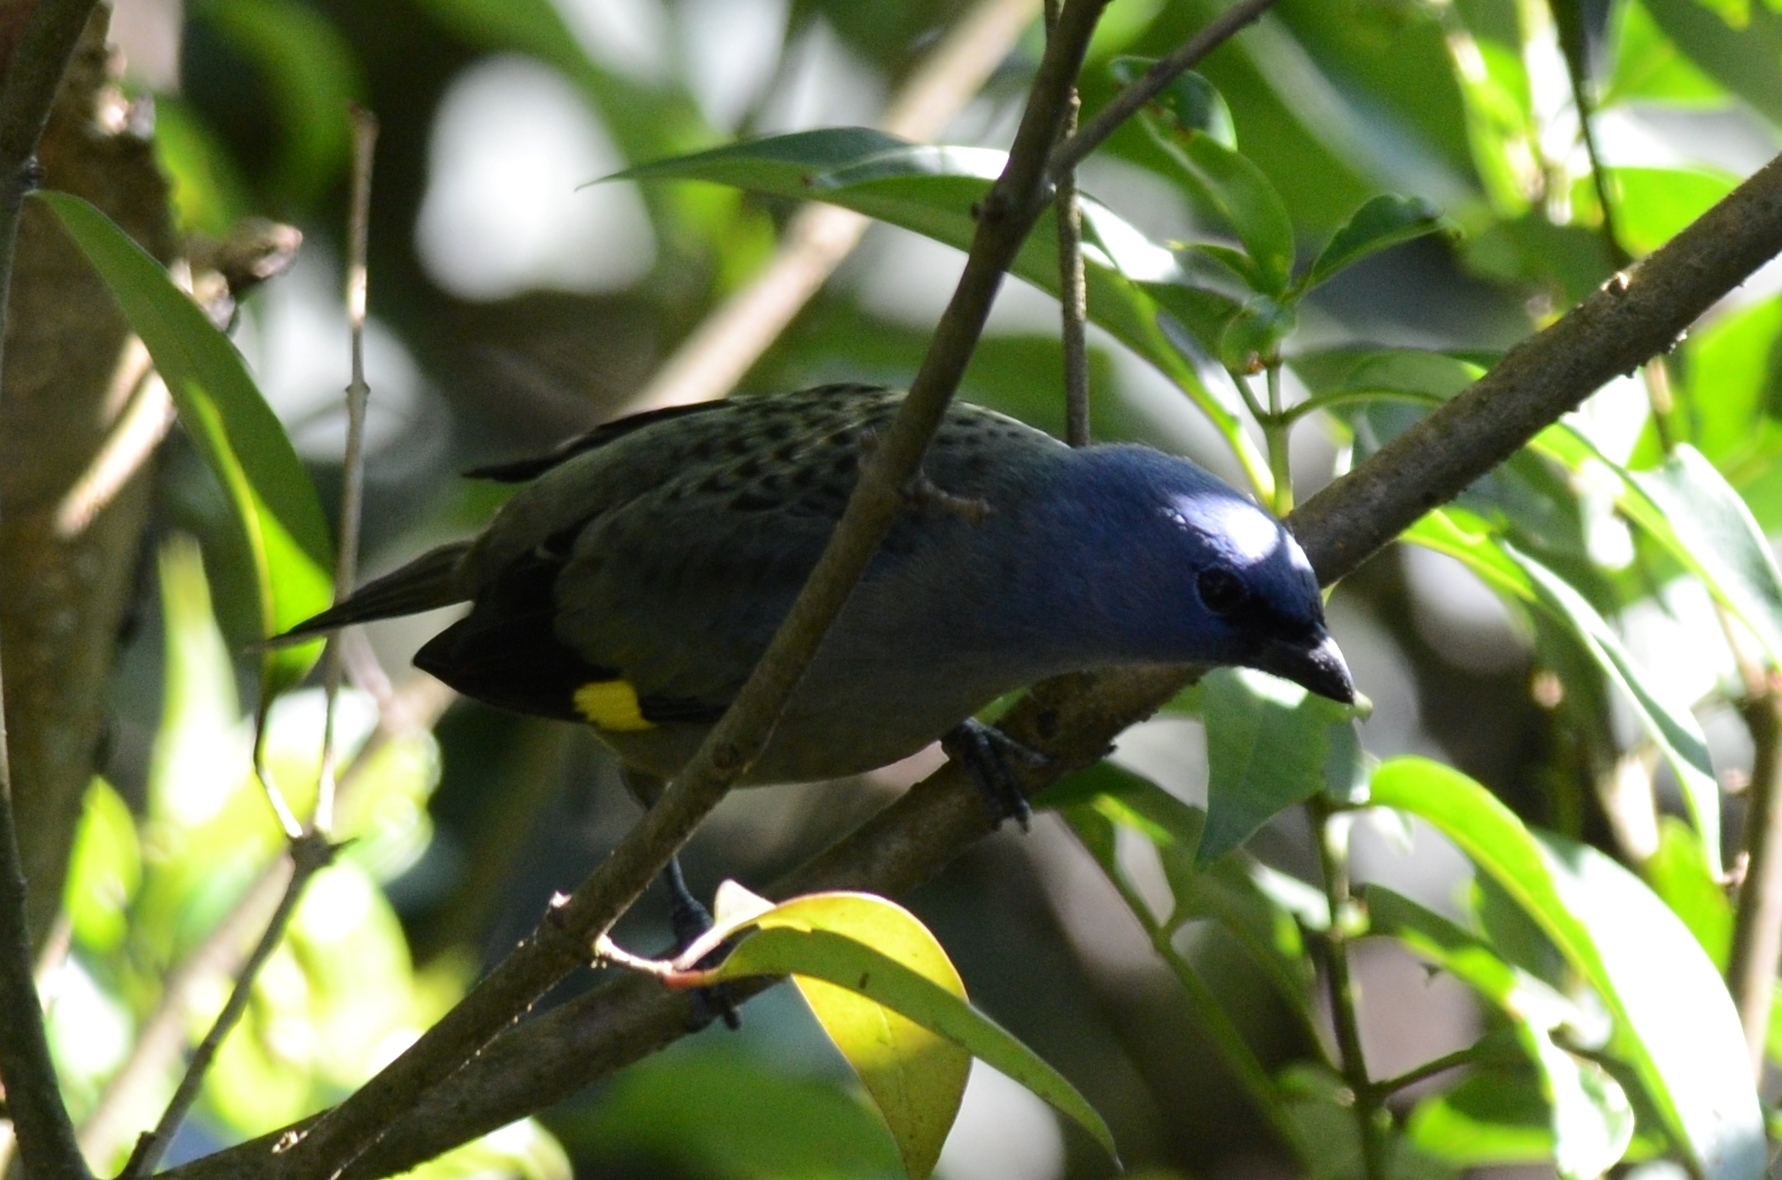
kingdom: Animalia
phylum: Chordata
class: Aves
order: Passeriformes
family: Thraupidae
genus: Thraupis
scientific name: Thraupis abbas
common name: Yellow-winged tanager
